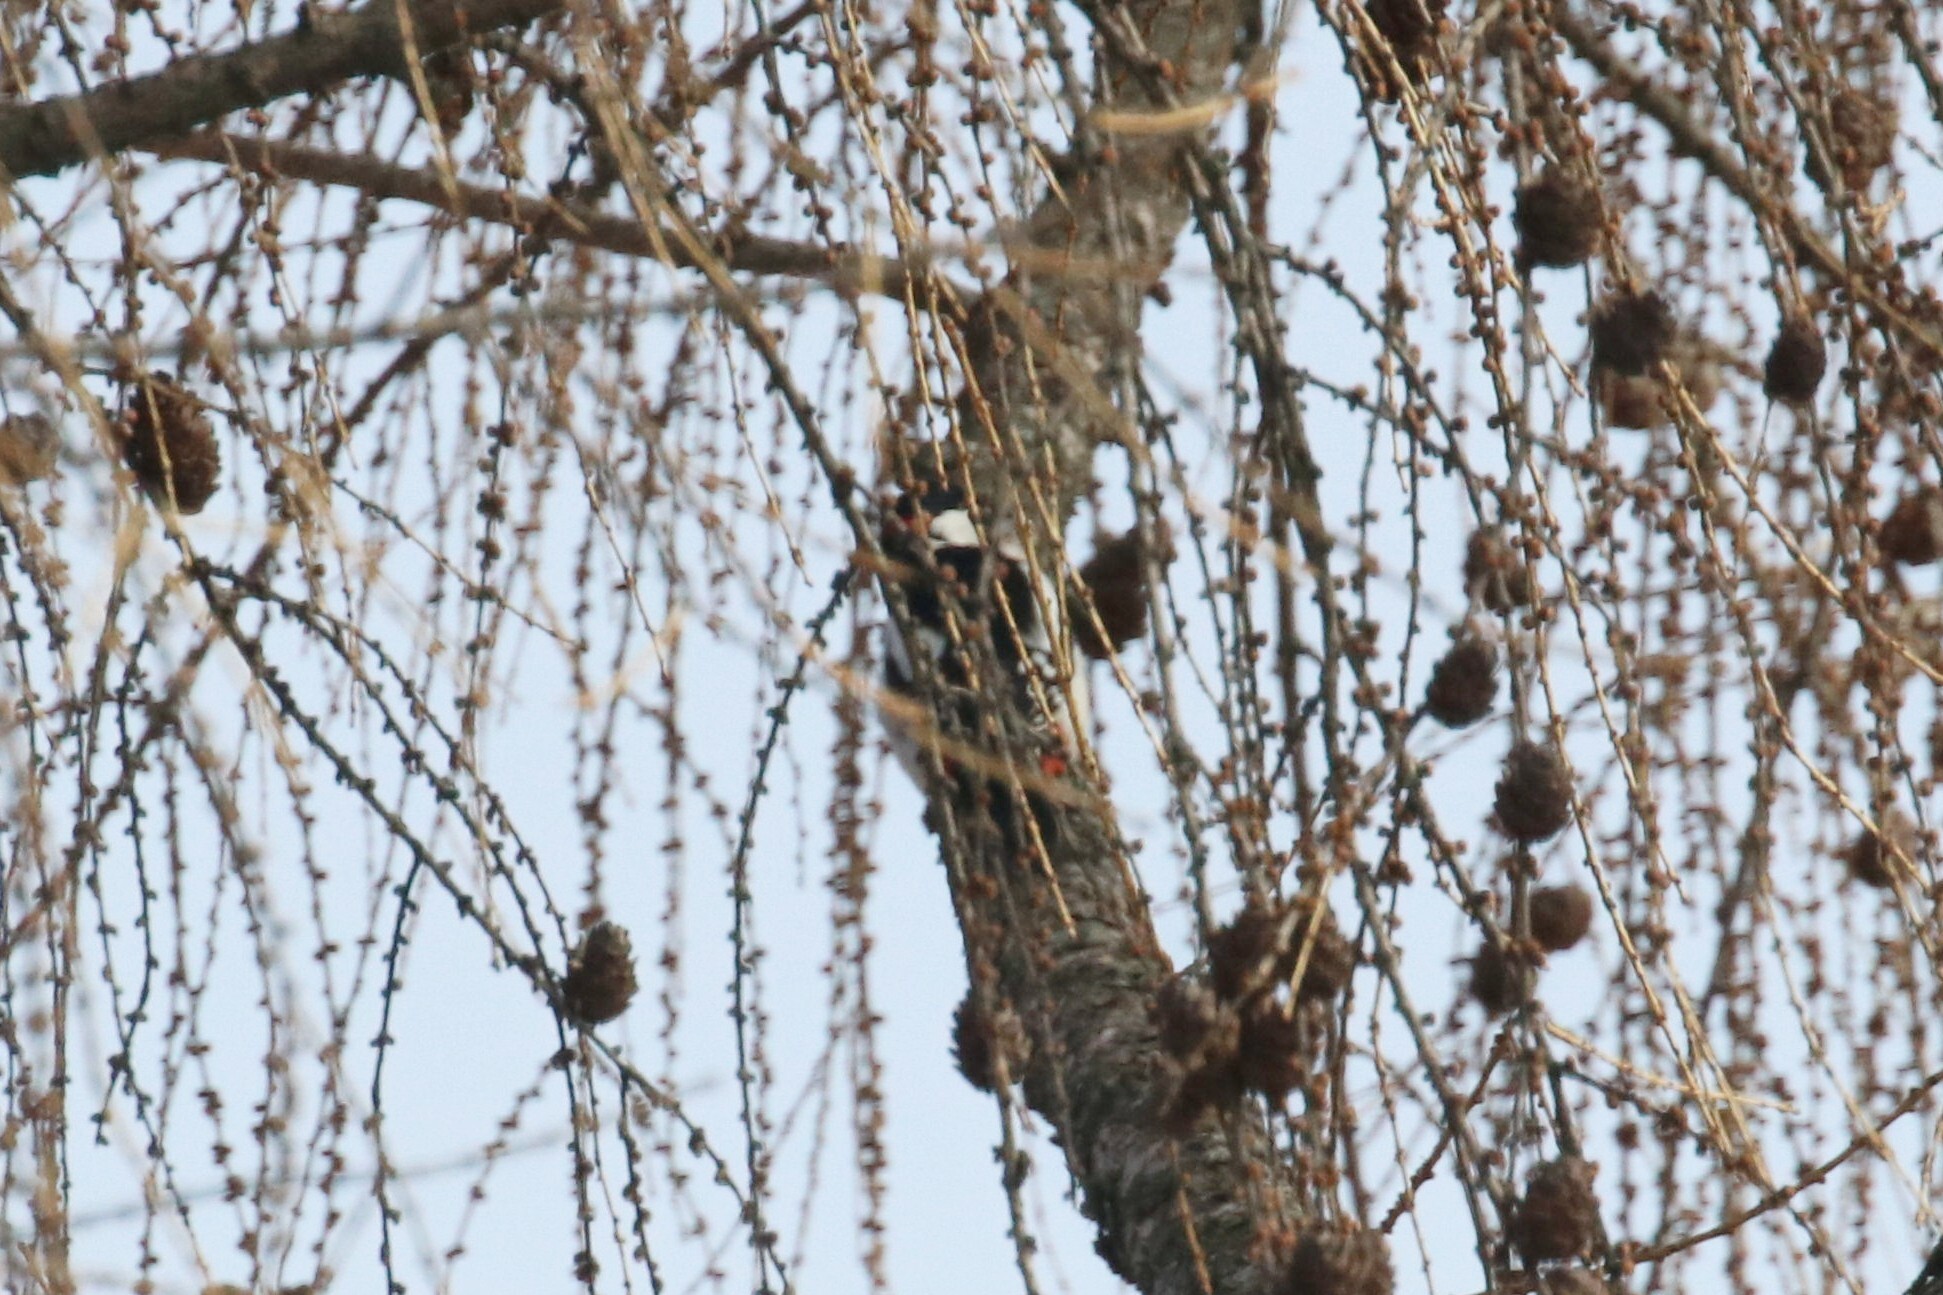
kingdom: Animalia
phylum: Chordata
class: Aves
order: Piciformes
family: Picidae
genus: Dendrocopos
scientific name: Dendrocopos major
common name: Great spotted woodpecker
